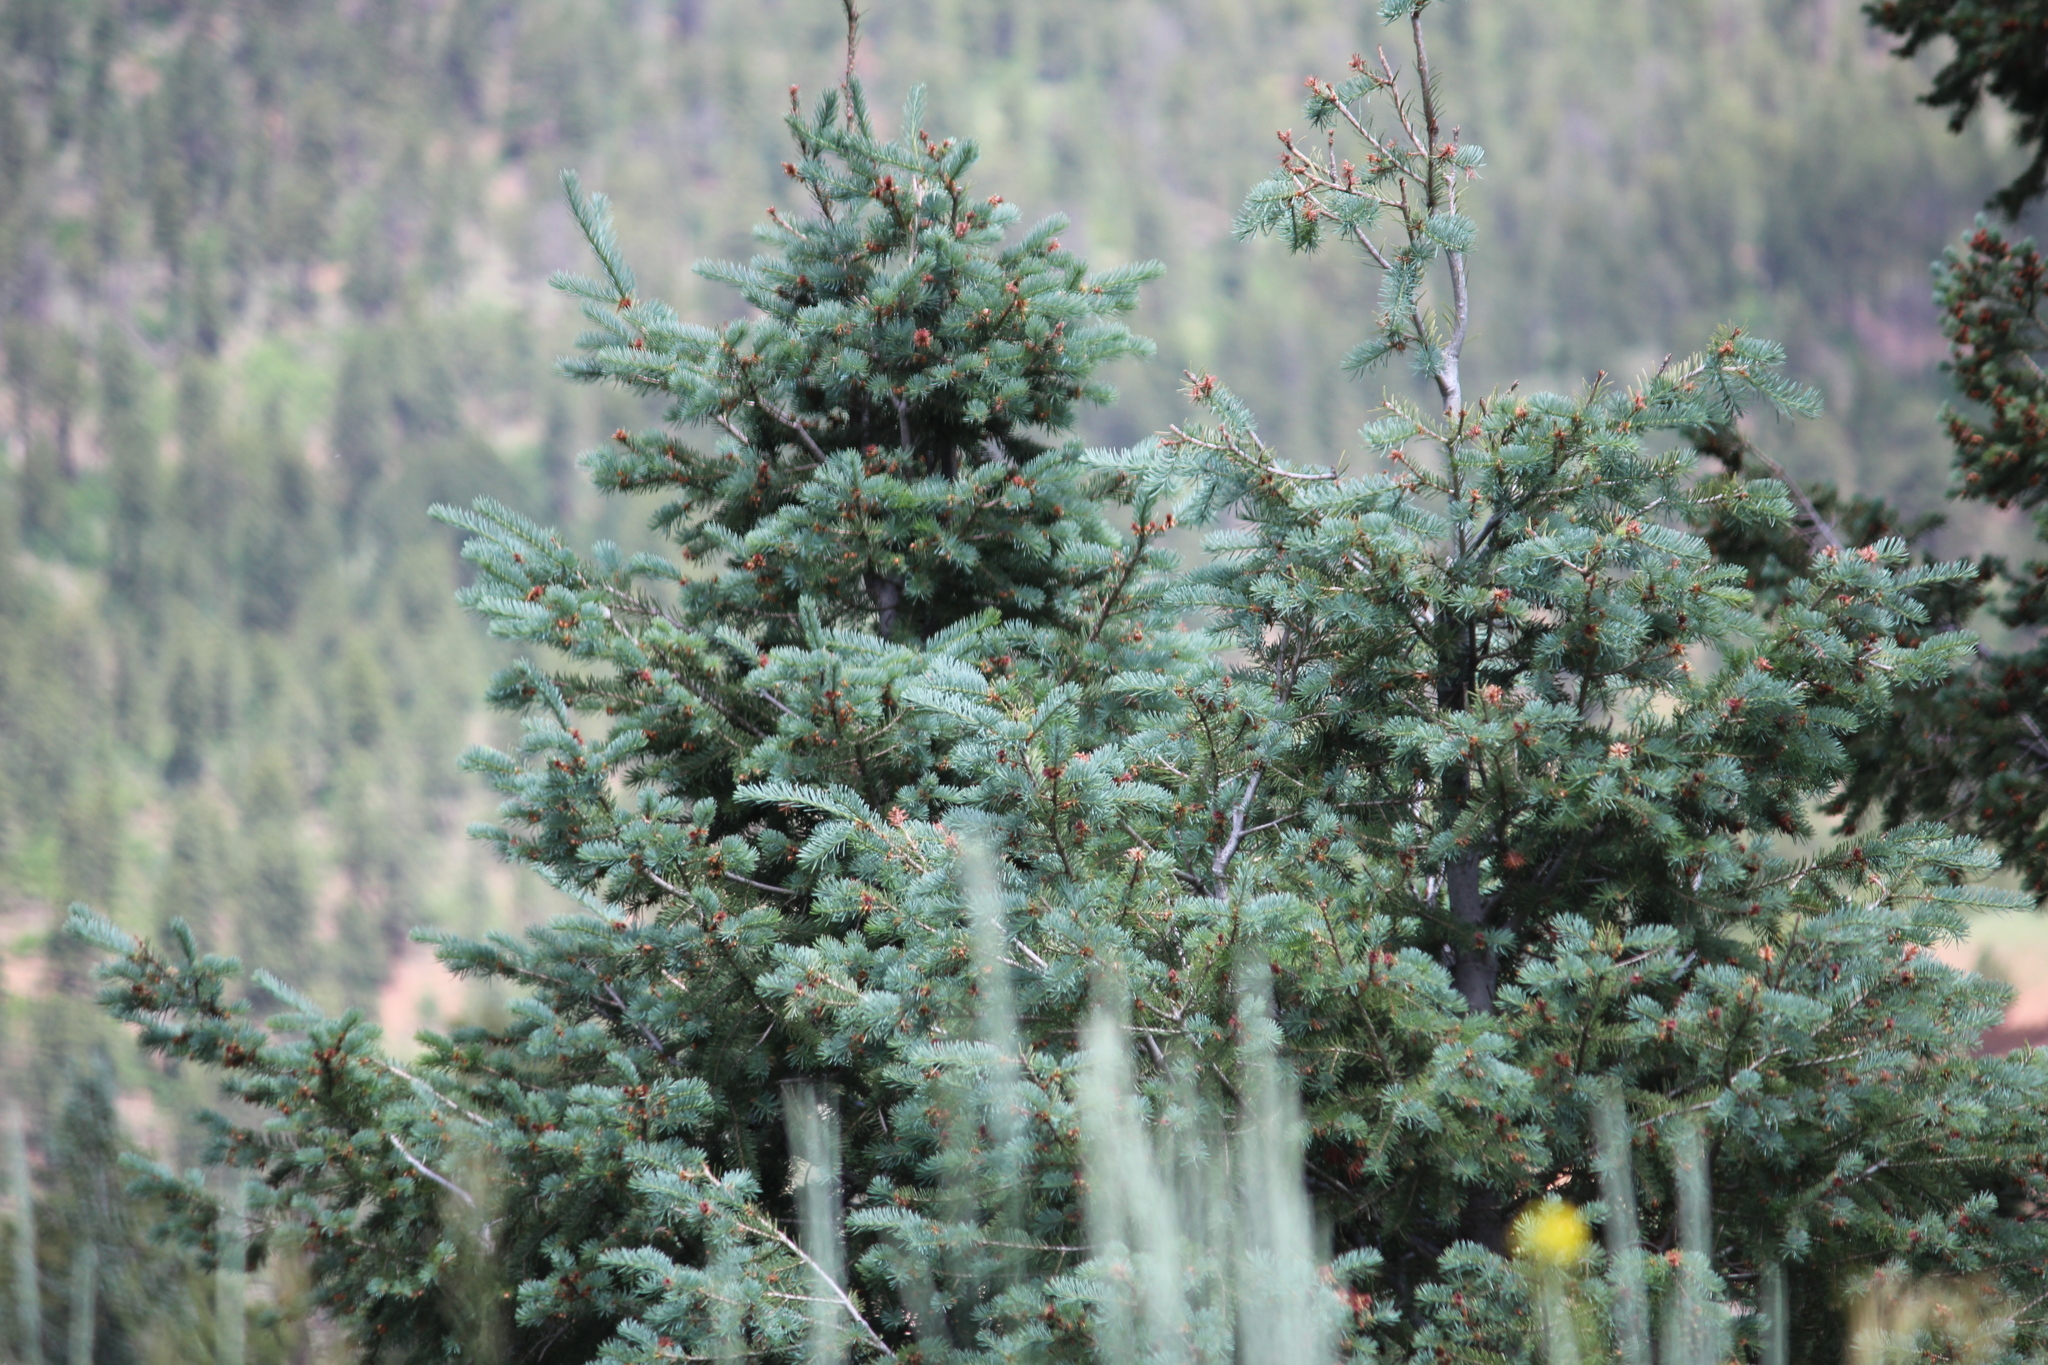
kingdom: Plantae
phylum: Tracheophyta
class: Pinopsida
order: Pinales
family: Pinaceae
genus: Picea
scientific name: Picea pungens
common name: Colorado spruce
